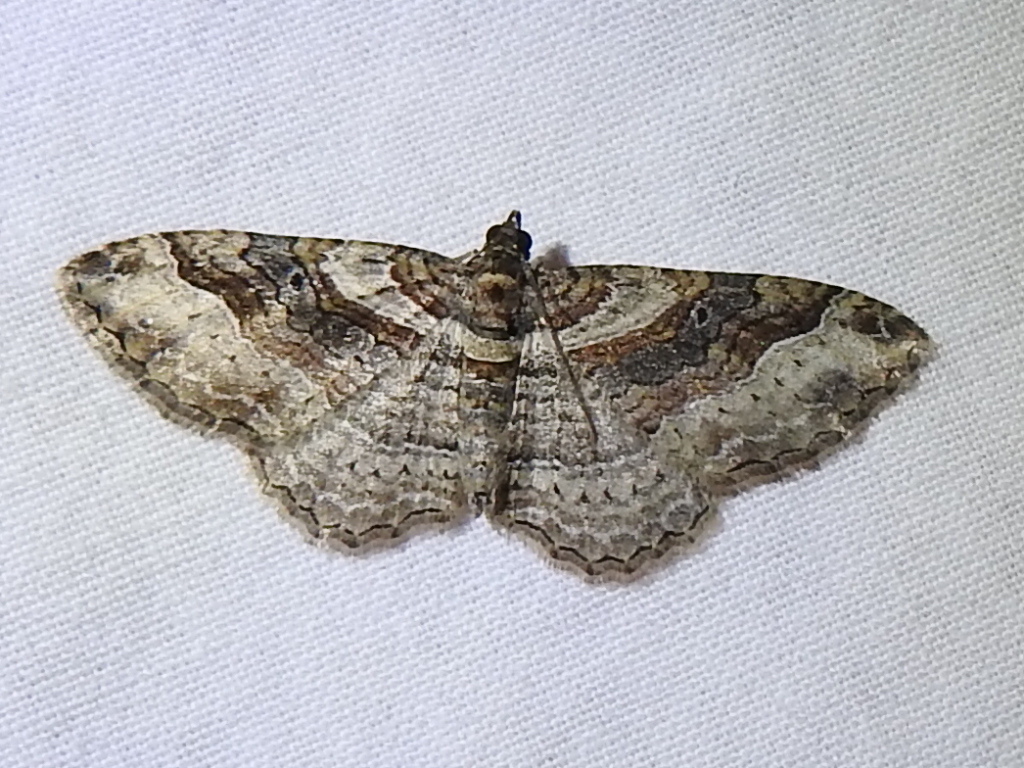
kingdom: Animalia
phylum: Arthropoda
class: Insecta
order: Lepidoptera
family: Geometridae
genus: Costaconvexa
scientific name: Costaconvexa centrostrigaria
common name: Bent-line carpet
